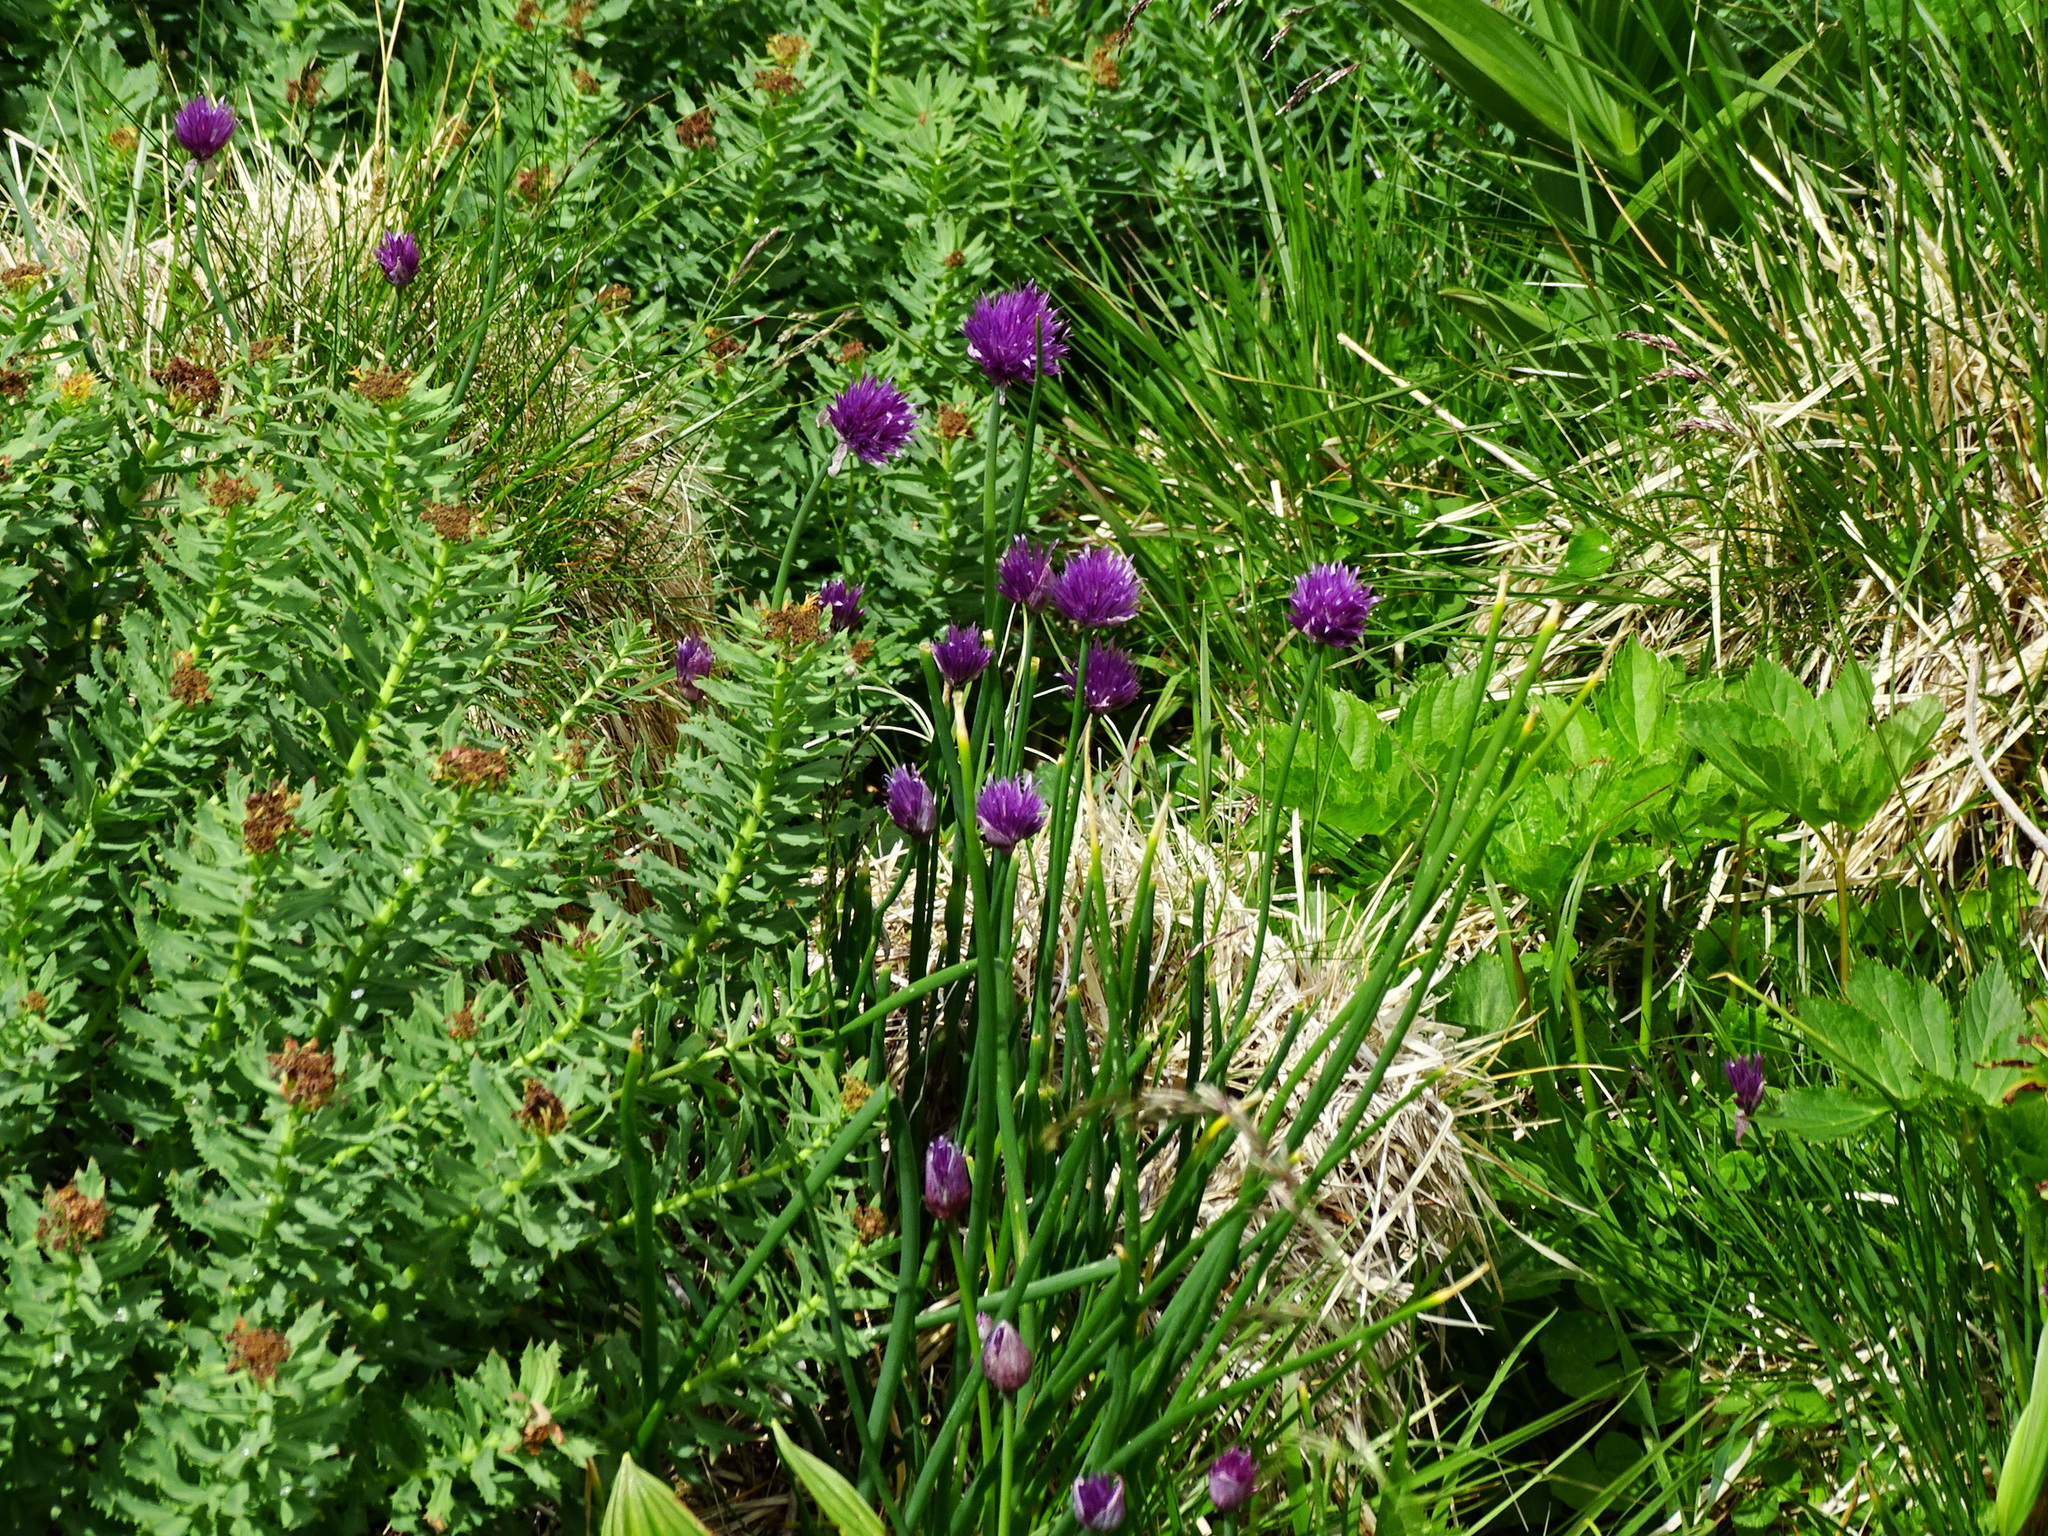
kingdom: Plantae
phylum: Tracheophyta
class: Liliopsida
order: Asparagales
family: Amaryllidaceae
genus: Allium
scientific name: Allium schoenoprasum
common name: Chives
